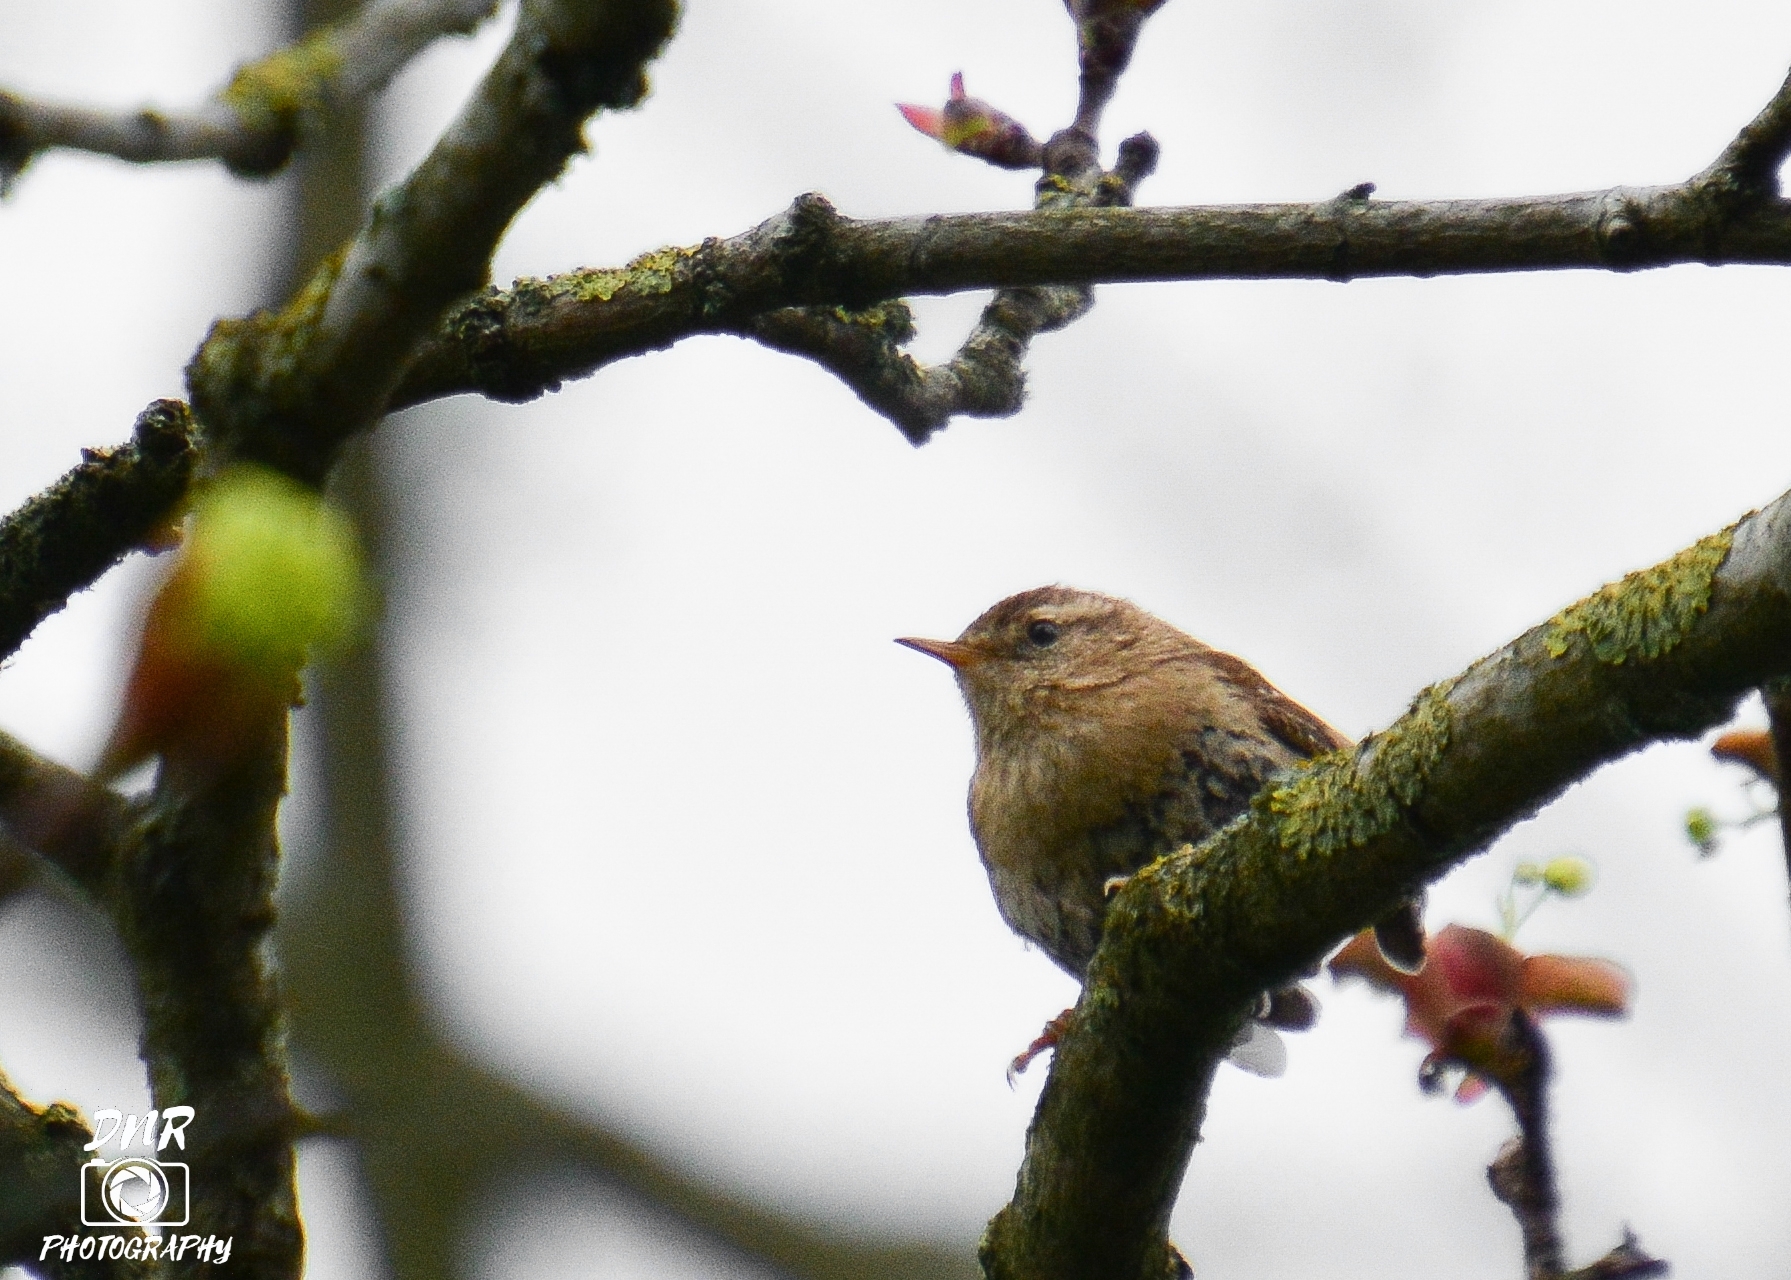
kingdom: Animalia
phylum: Chordata
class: Aves
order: Passeriformes
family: Troglodytidae
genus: Troglodytes
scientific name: Troglodytes troglodytes
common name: Eurasian wren
